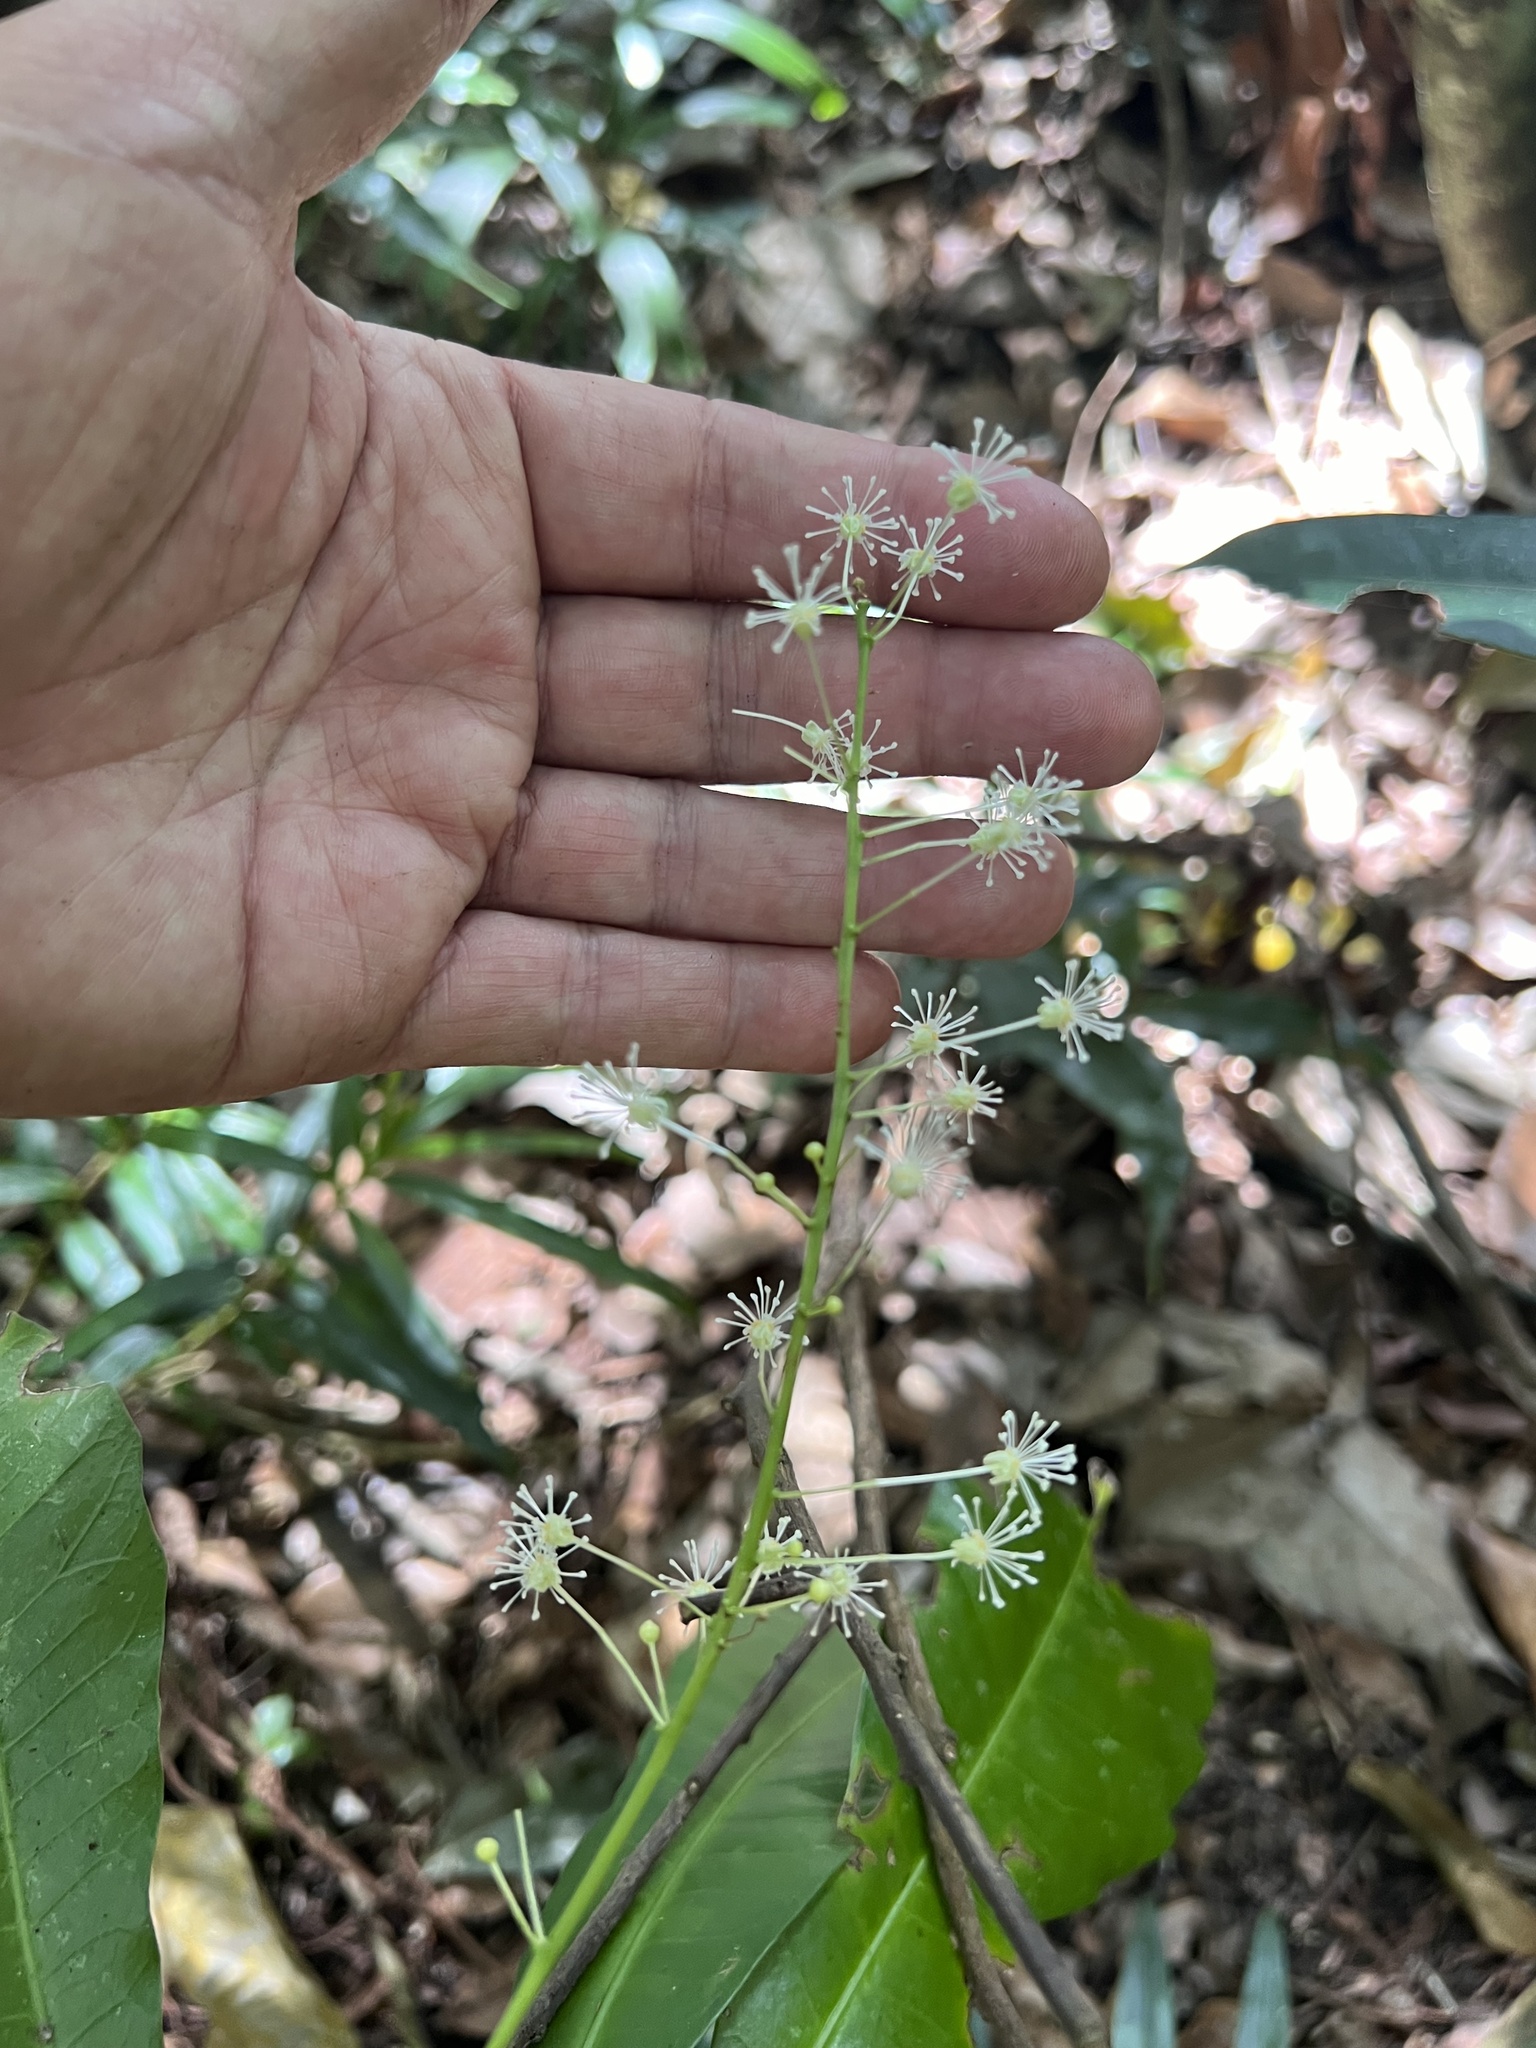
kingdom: Plantae
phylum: Tracheophyta
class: Magnoliopsida
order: Malpighiales
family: Euphorbiaceae
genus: Codiaeum
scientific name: Codiaeum variegatum
